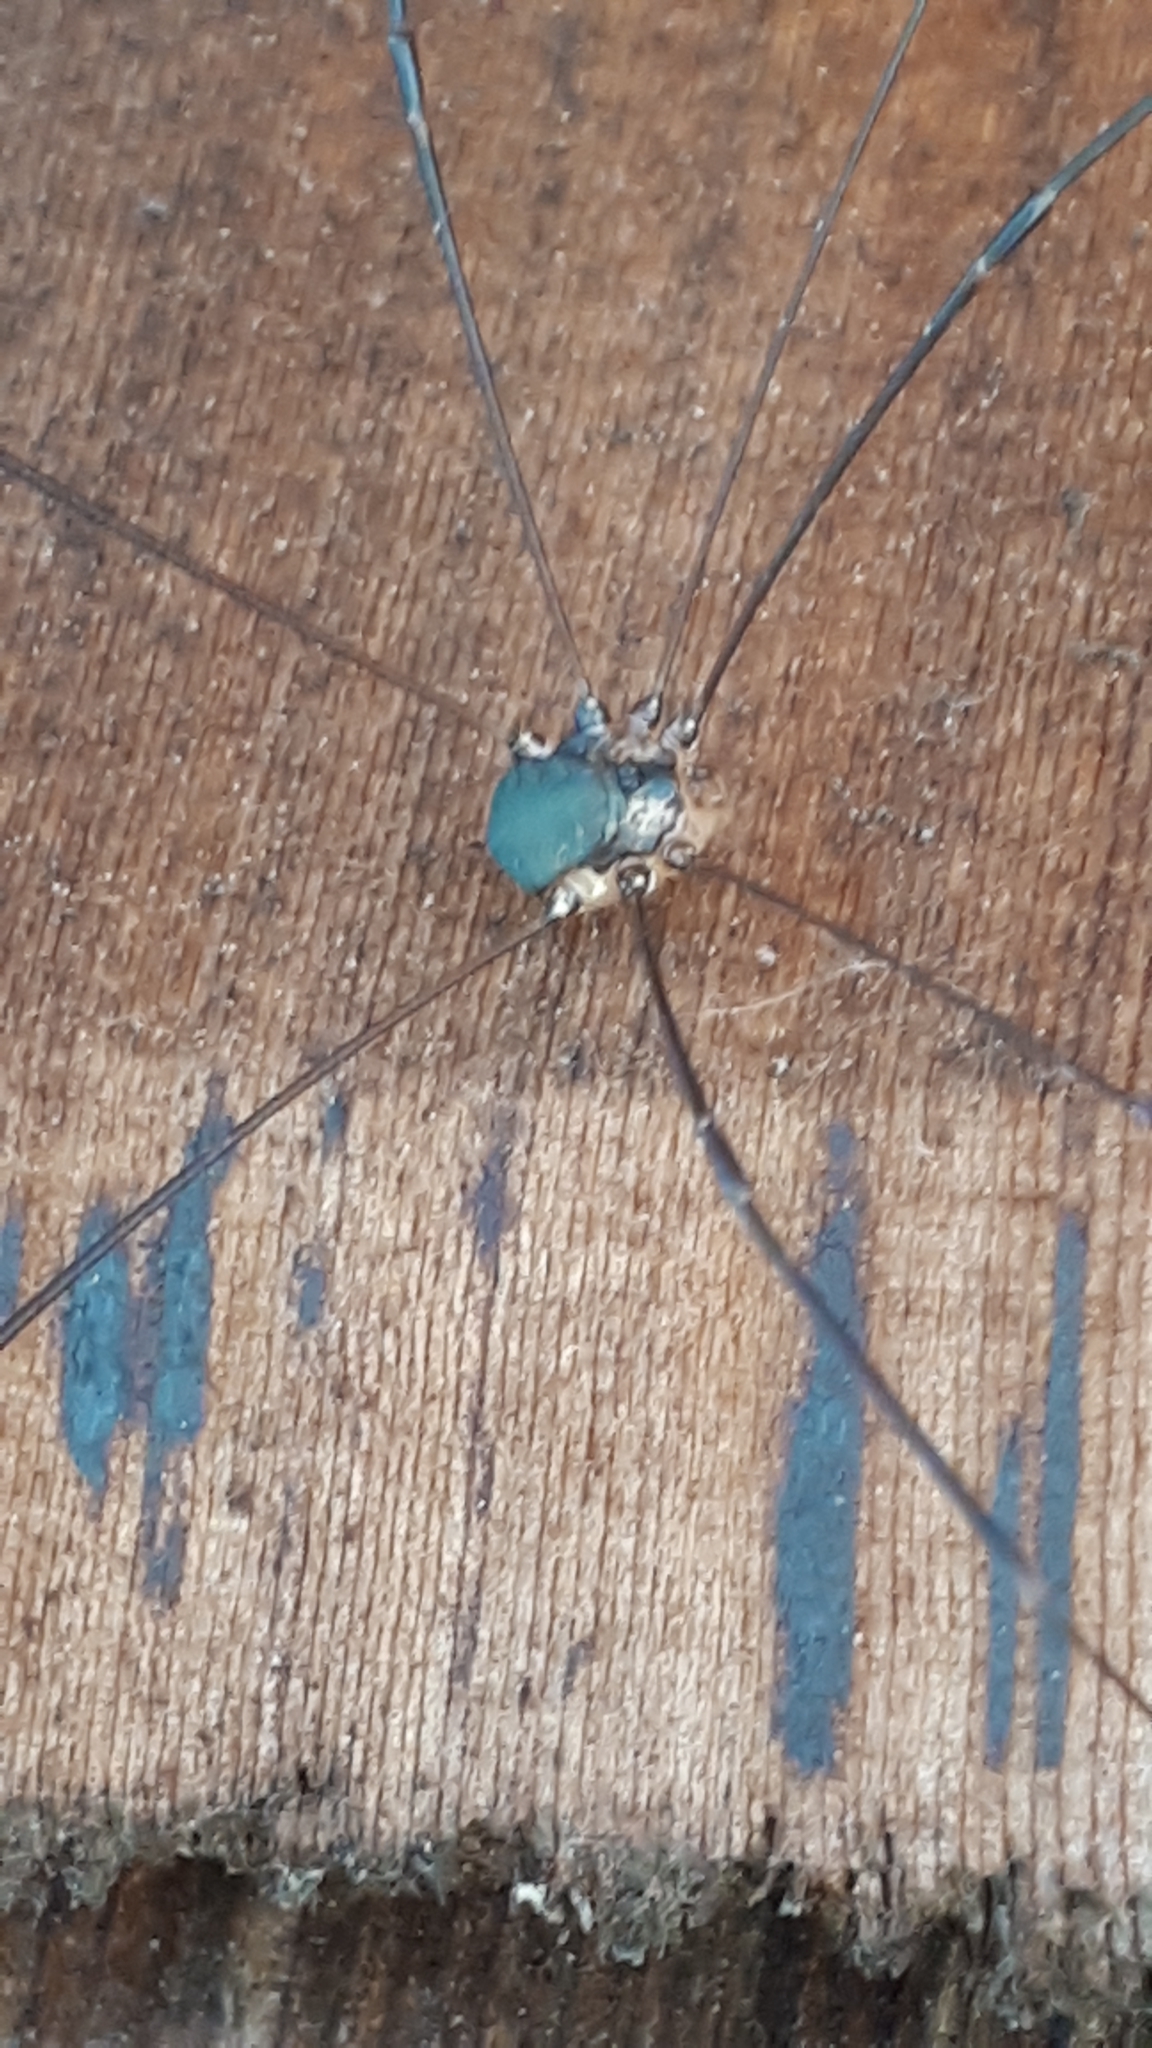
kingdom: Animalia
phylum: Arthropoda
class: Arachnida
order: Opiliones
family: Sclerosomatidae
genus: Leiobunum
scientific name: Leiobunum
